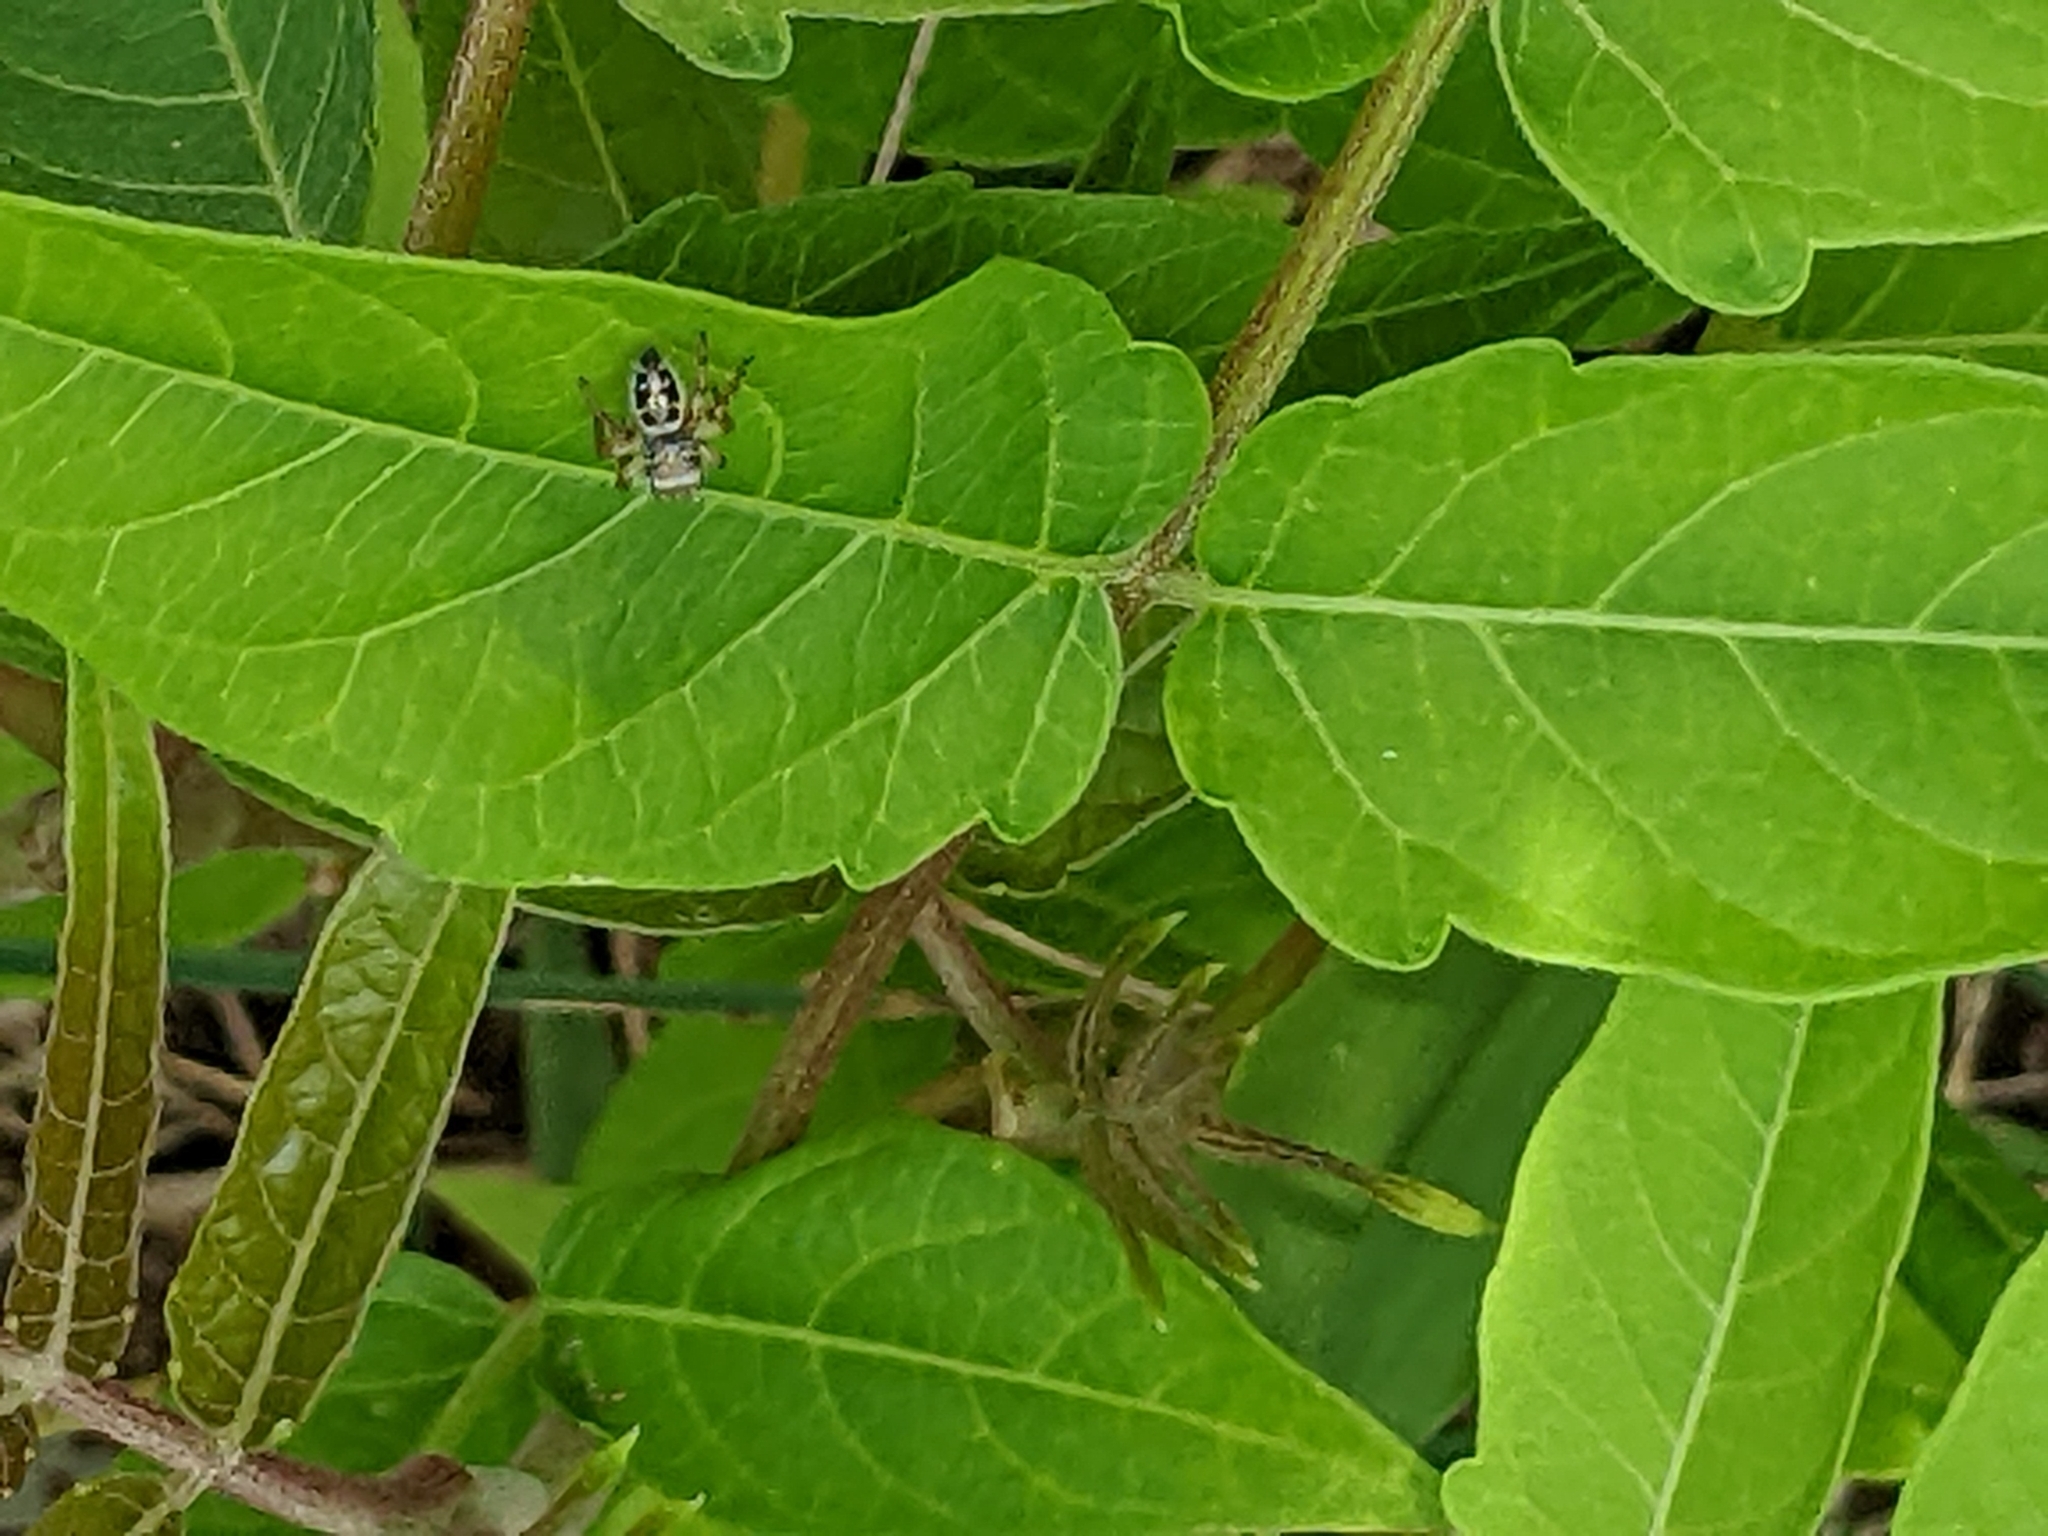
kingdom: Animalia
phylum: Arthropoda
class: Arachnida
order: Araneae
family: Salticidae
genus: Phidippus
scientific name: Phidippus princeps
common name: Grayish jumping spider
